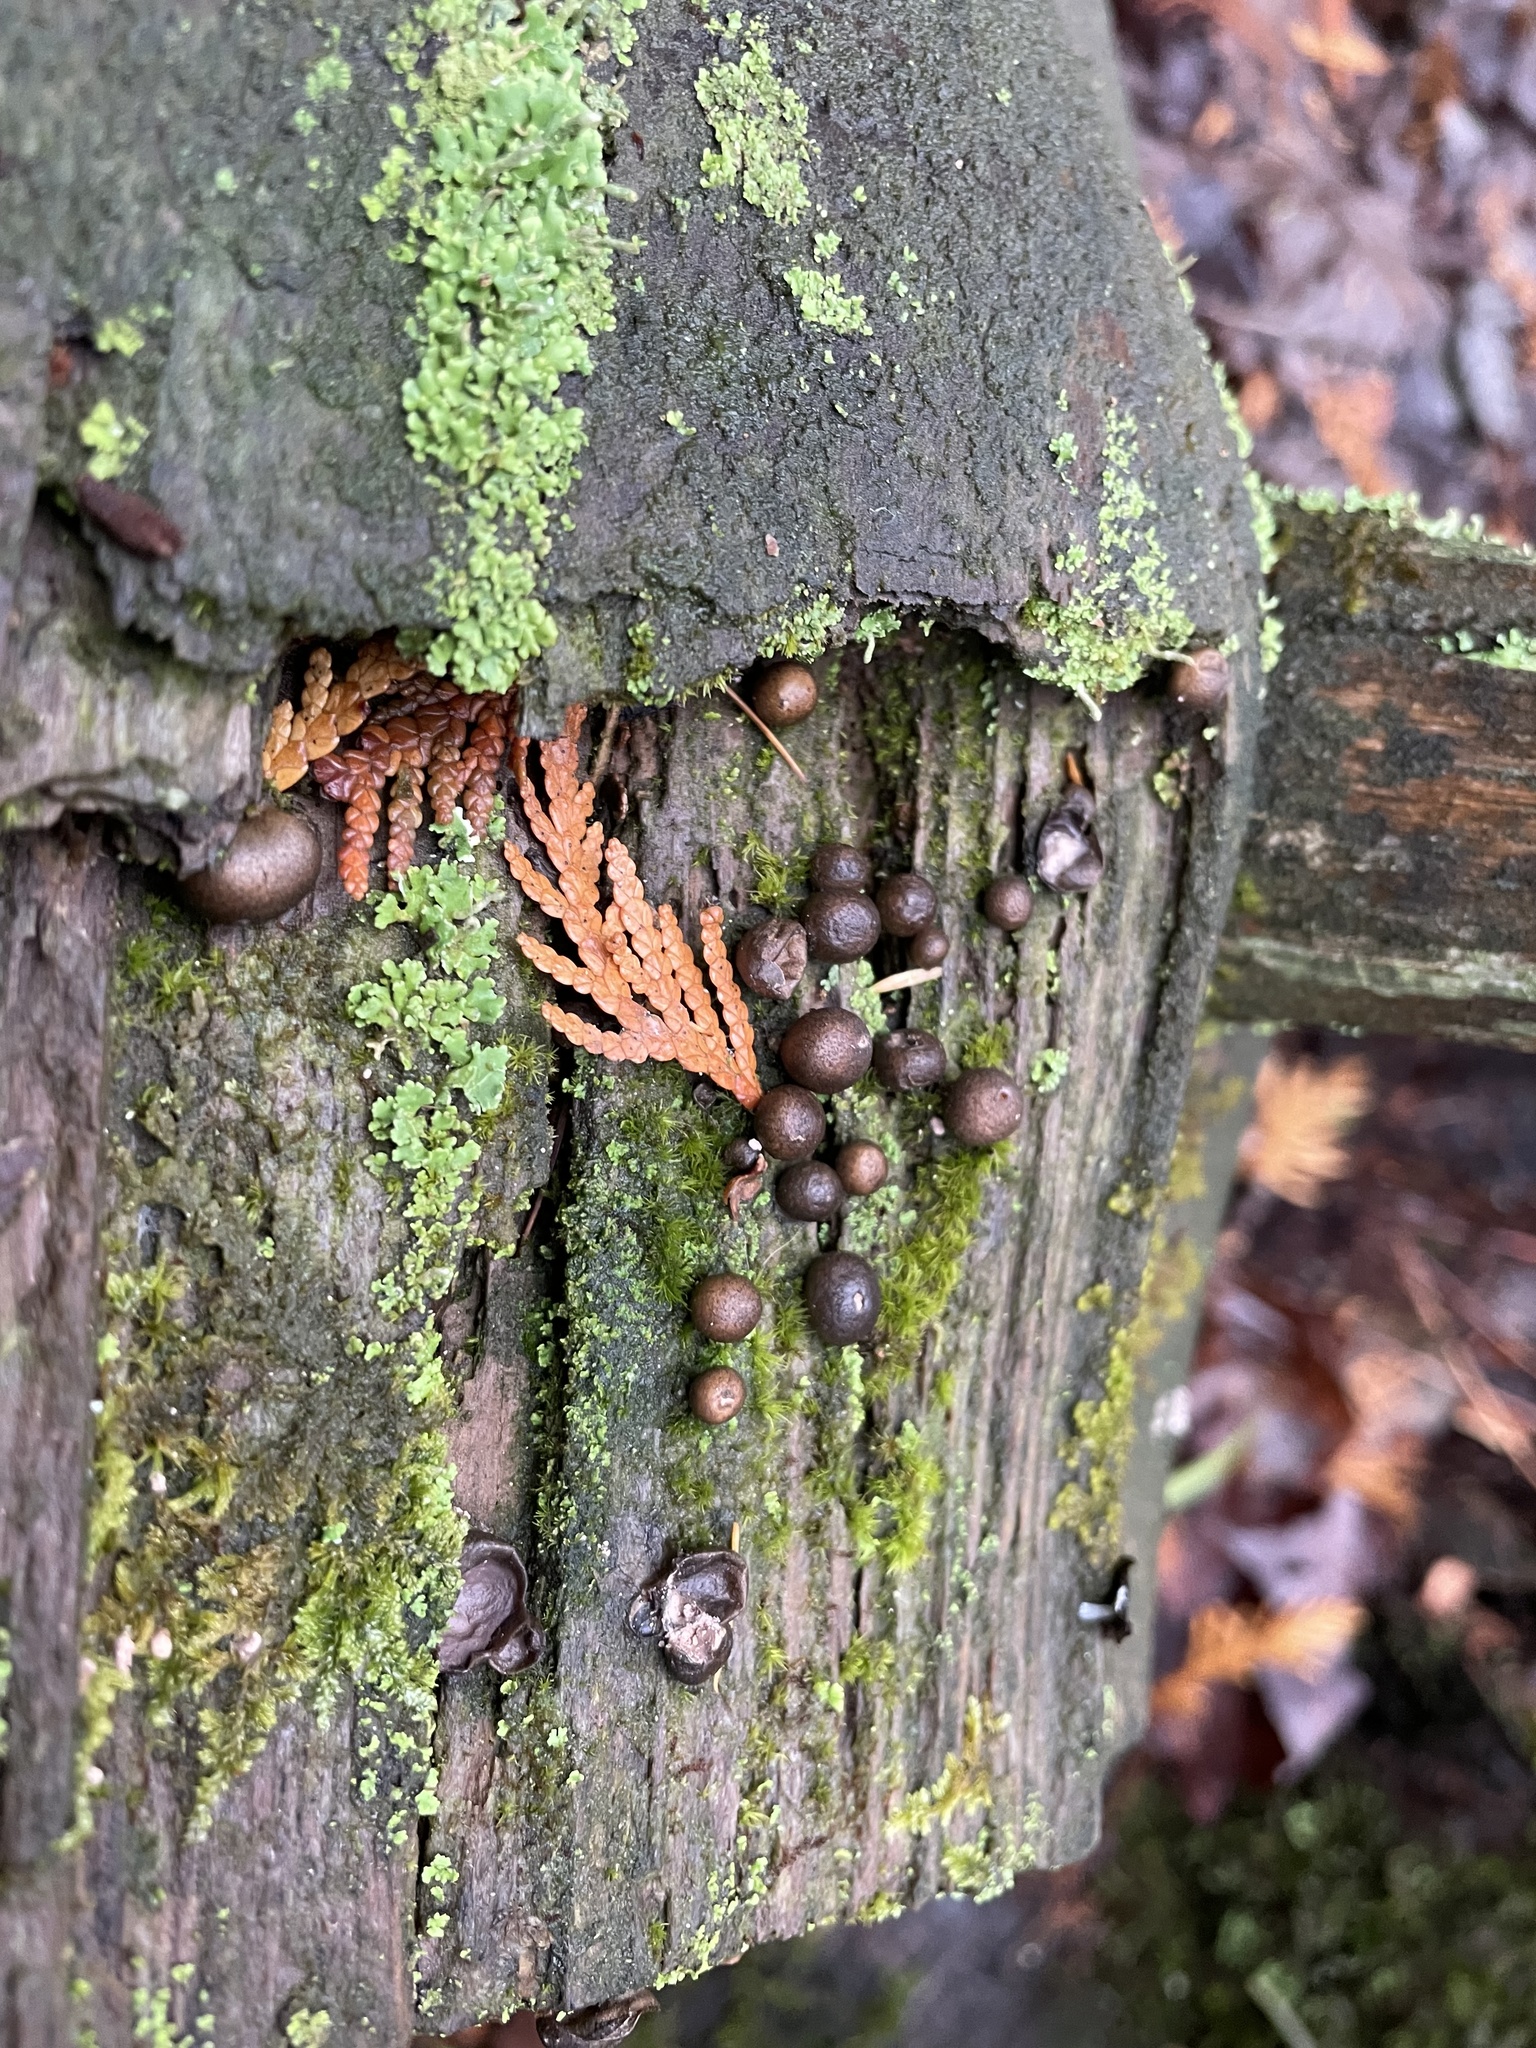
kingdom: Protozoa
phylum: Mycetozoa
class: Myxomycetes
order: Cribrariales
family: Tubiferaceae
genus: Lycogala
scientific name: Lycogala epidendrum
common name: Wolf's milk
